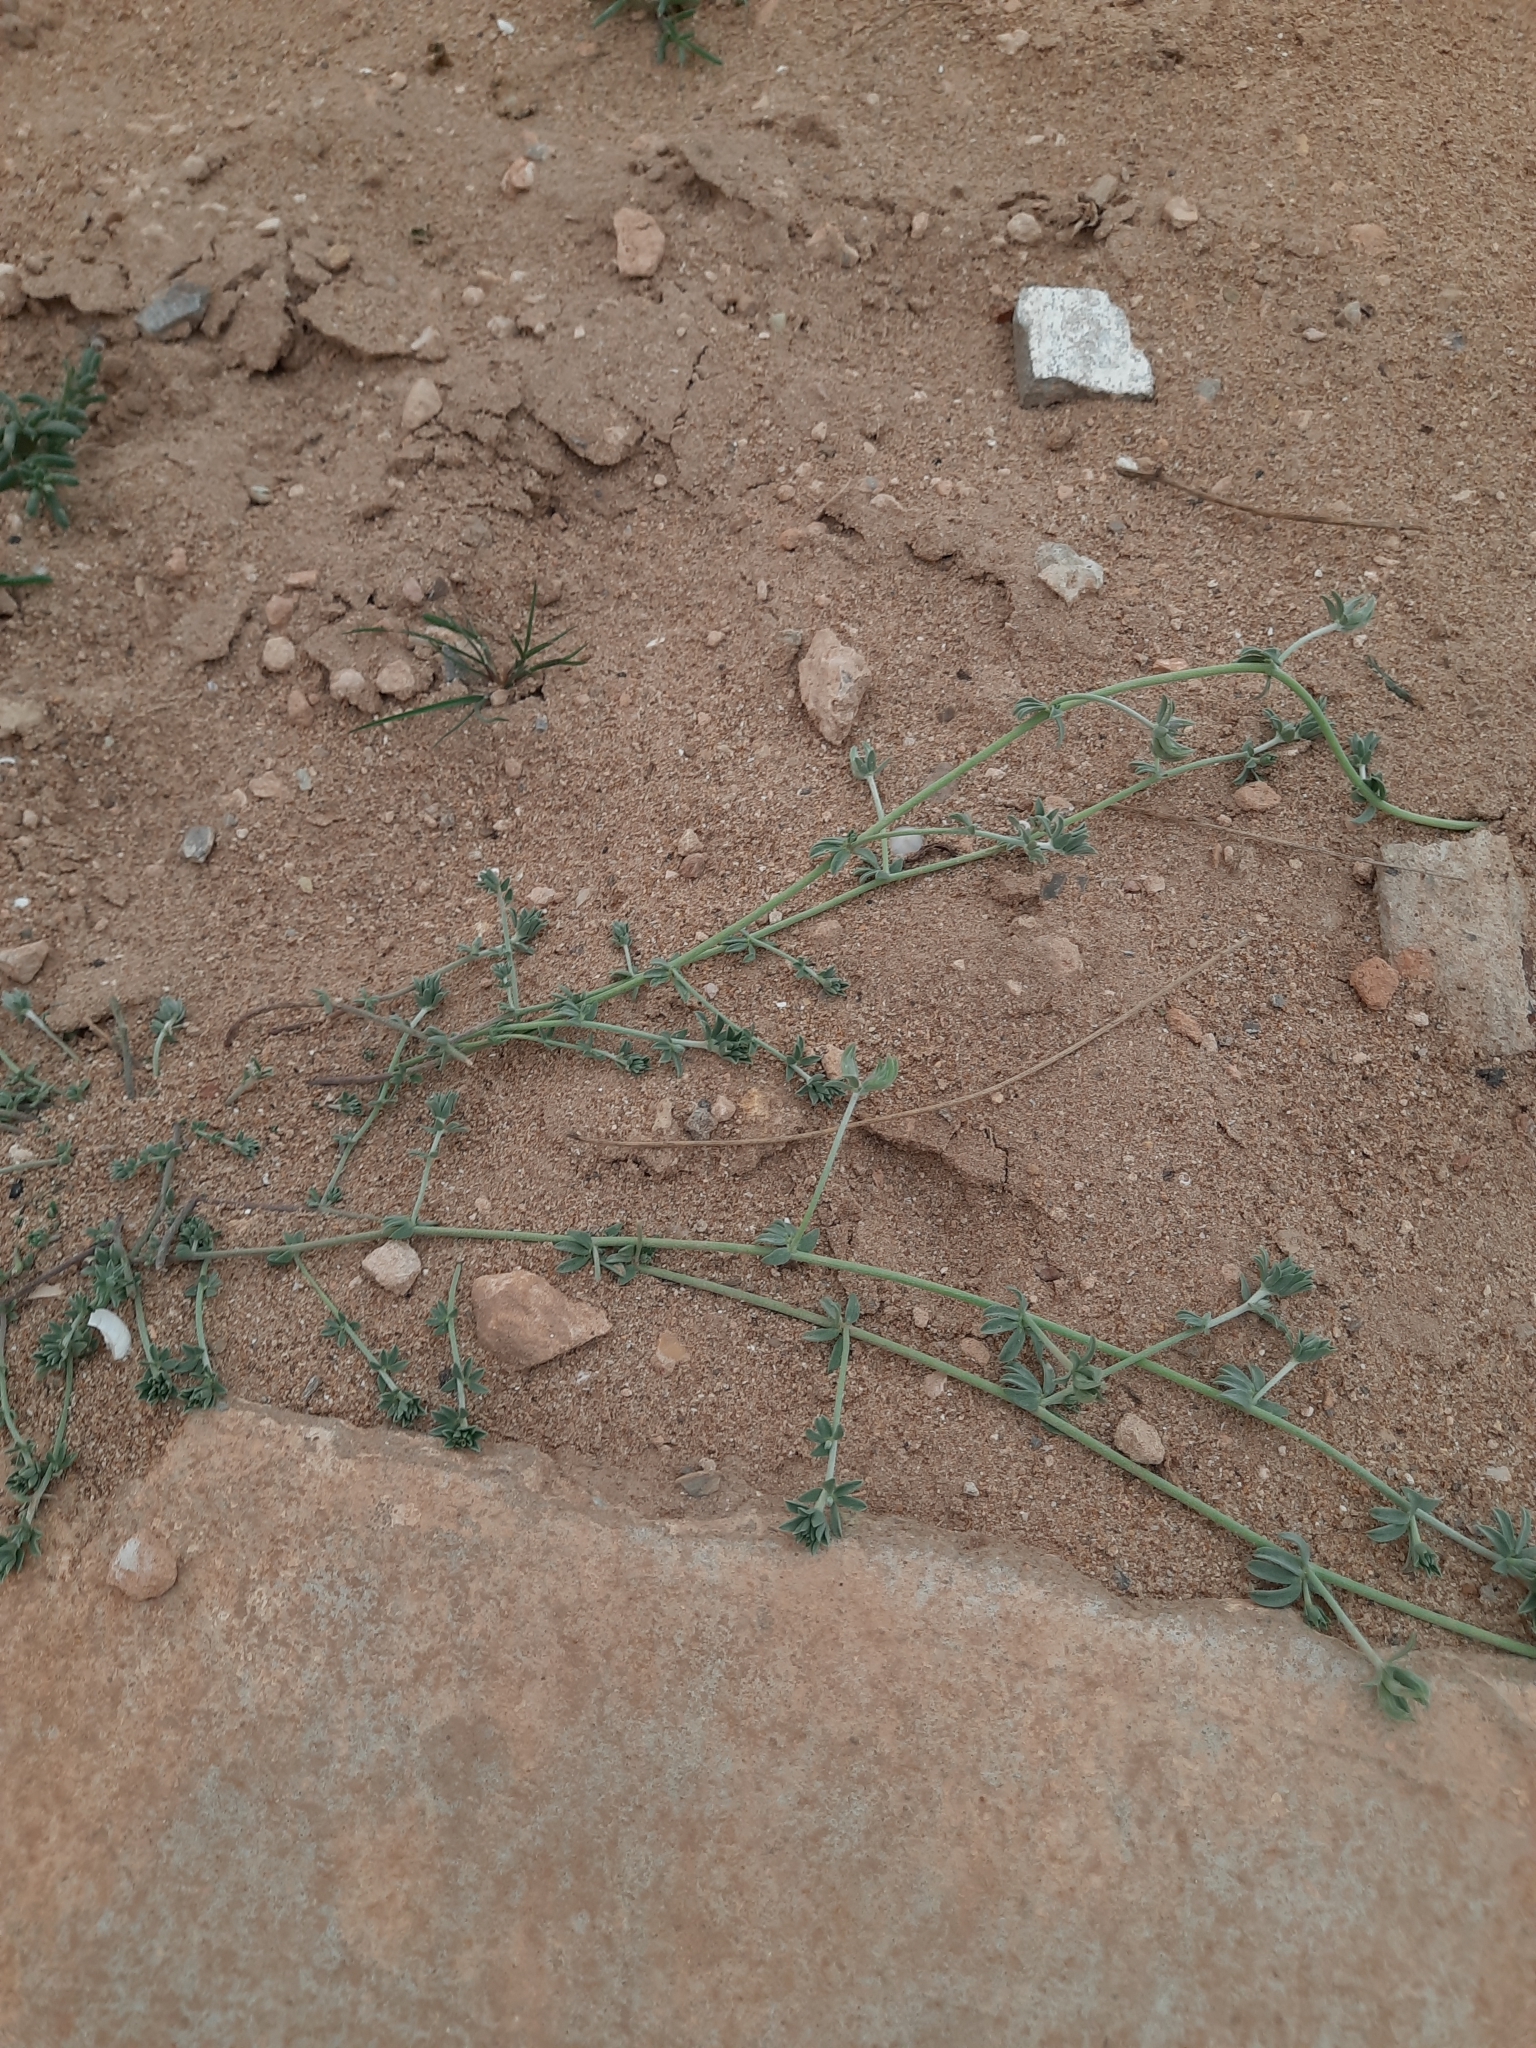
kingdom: Plantae
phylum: Tracheophyta
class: Magnoliopsida
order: Fabales
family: Fabaceae
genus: Lotus
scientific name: Lotus creticus
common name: Cretan bird's-foot trefoil
